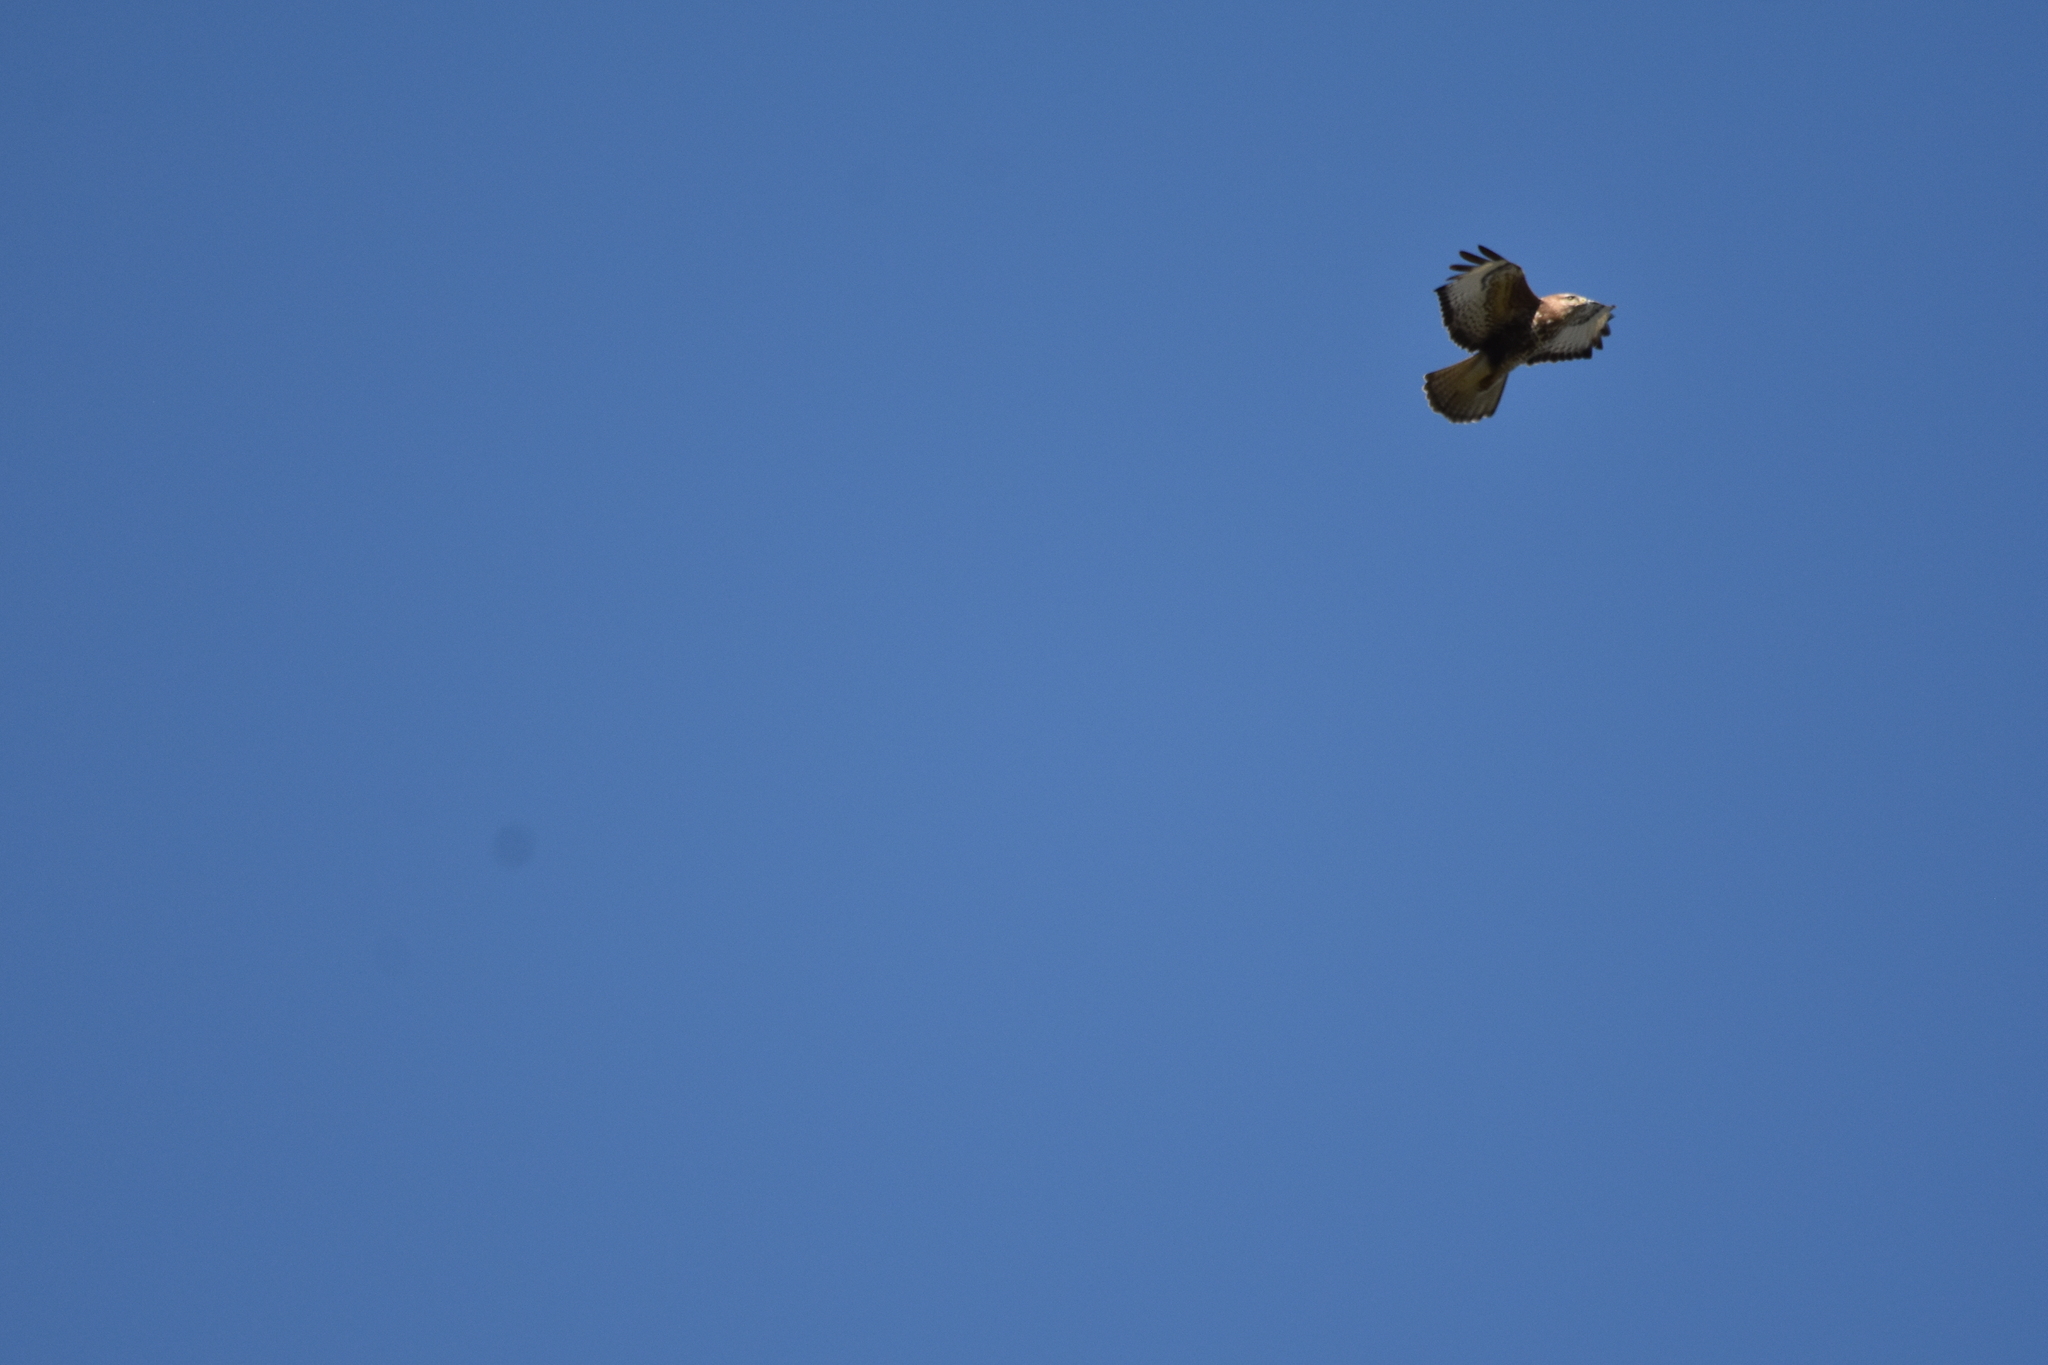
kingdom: Animalia
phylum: Chordata
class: Aves
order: Accipitriformes
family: Accipitridae
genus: Buteo
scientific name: Buteo buteo
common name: Common buzzard
